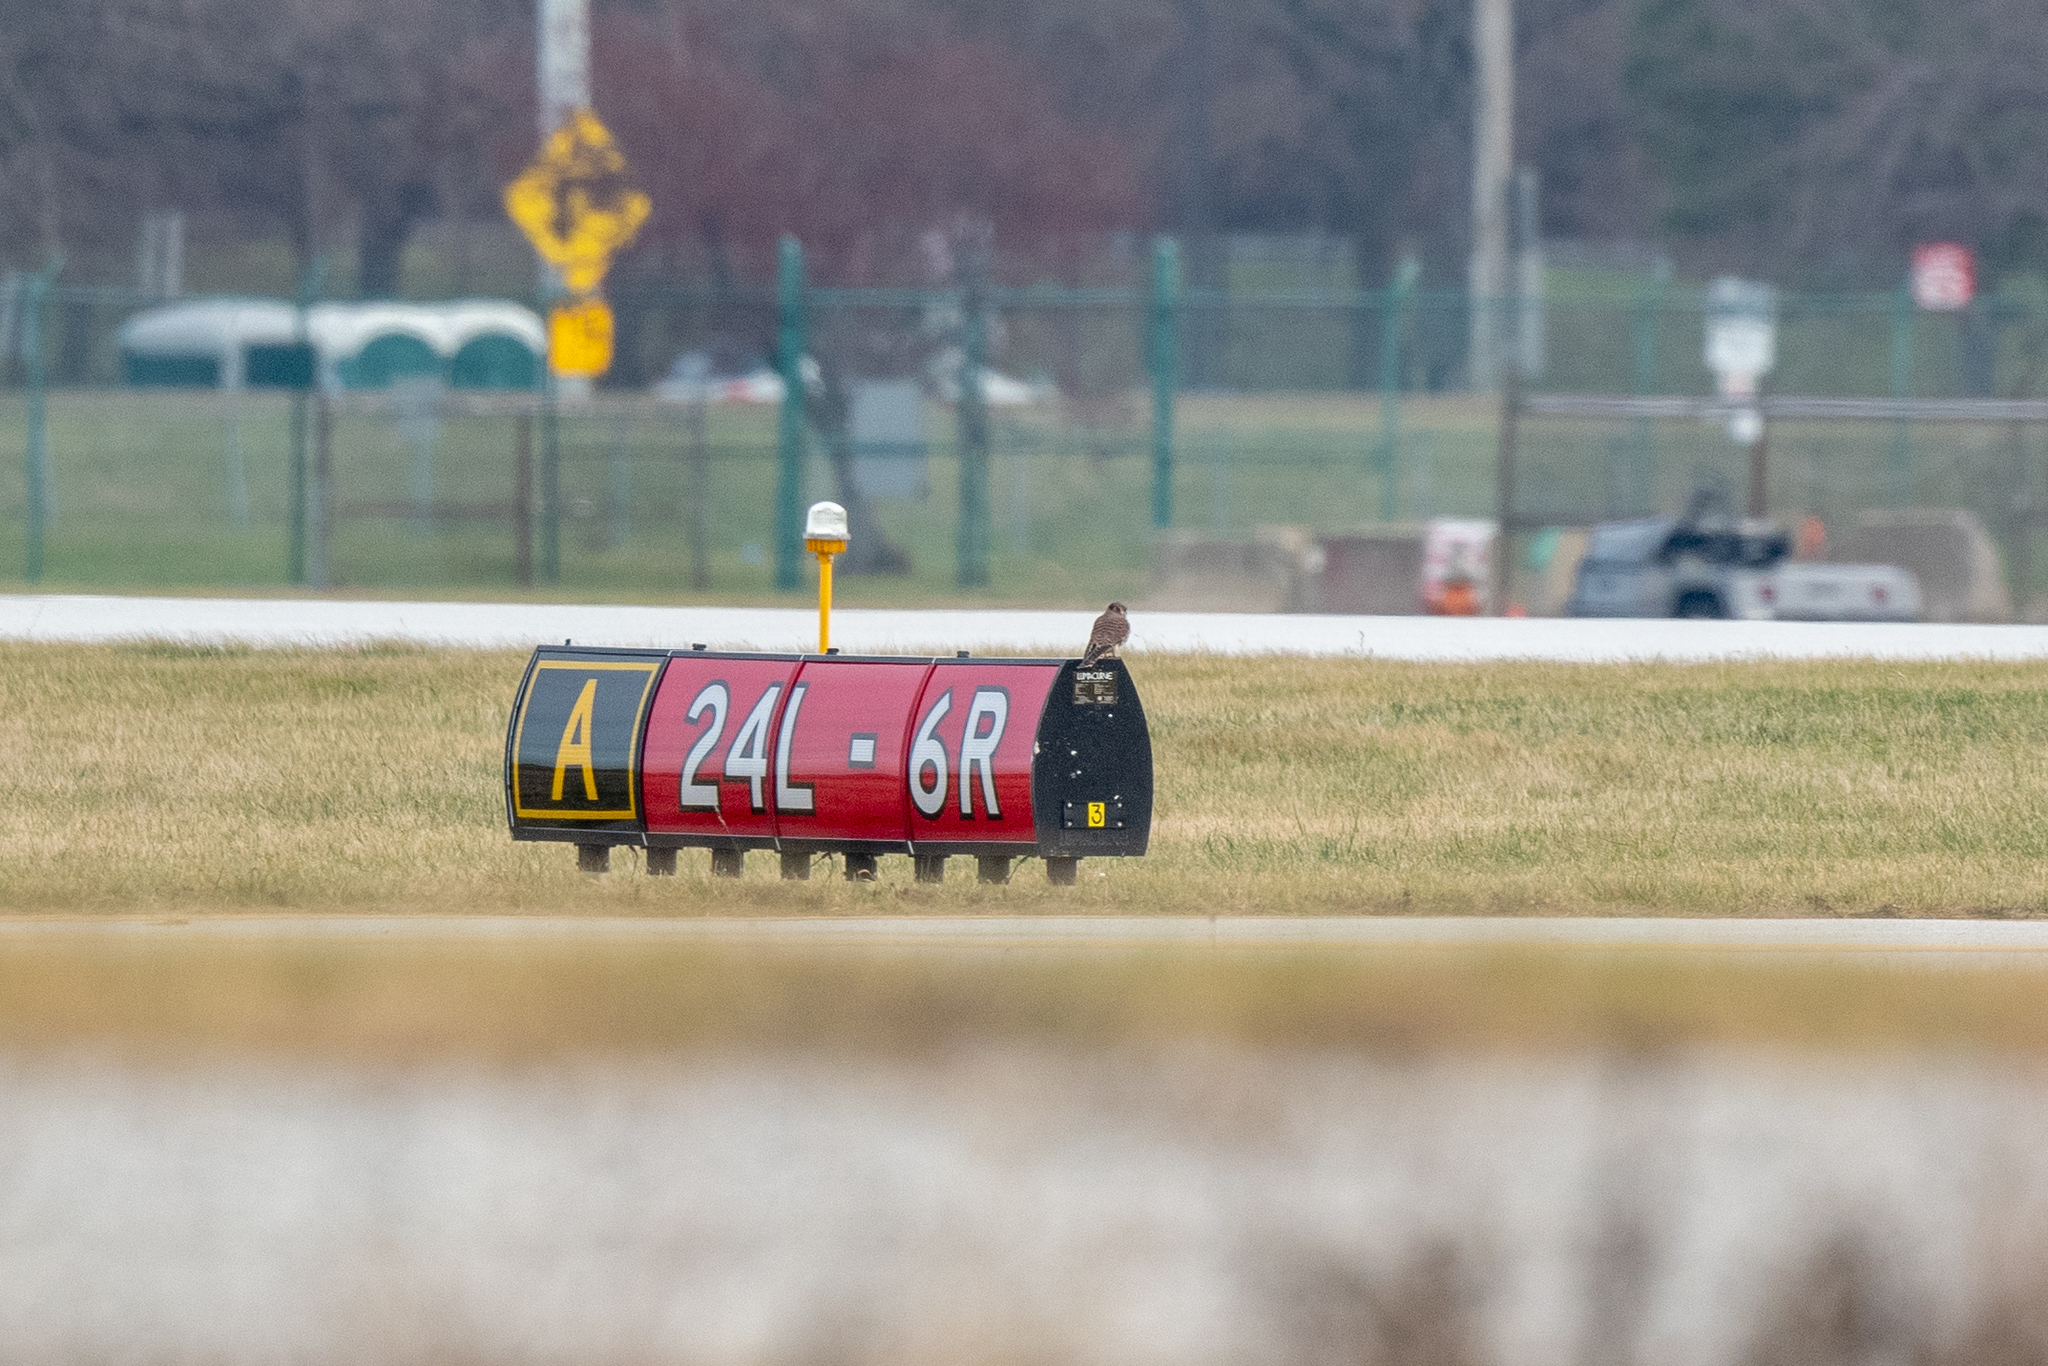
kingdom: Animalia
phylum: Chordata
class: Aves
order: Falconiformes
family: Falconidae
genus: Falco
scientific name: Falco sparverius
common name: American kestrel
